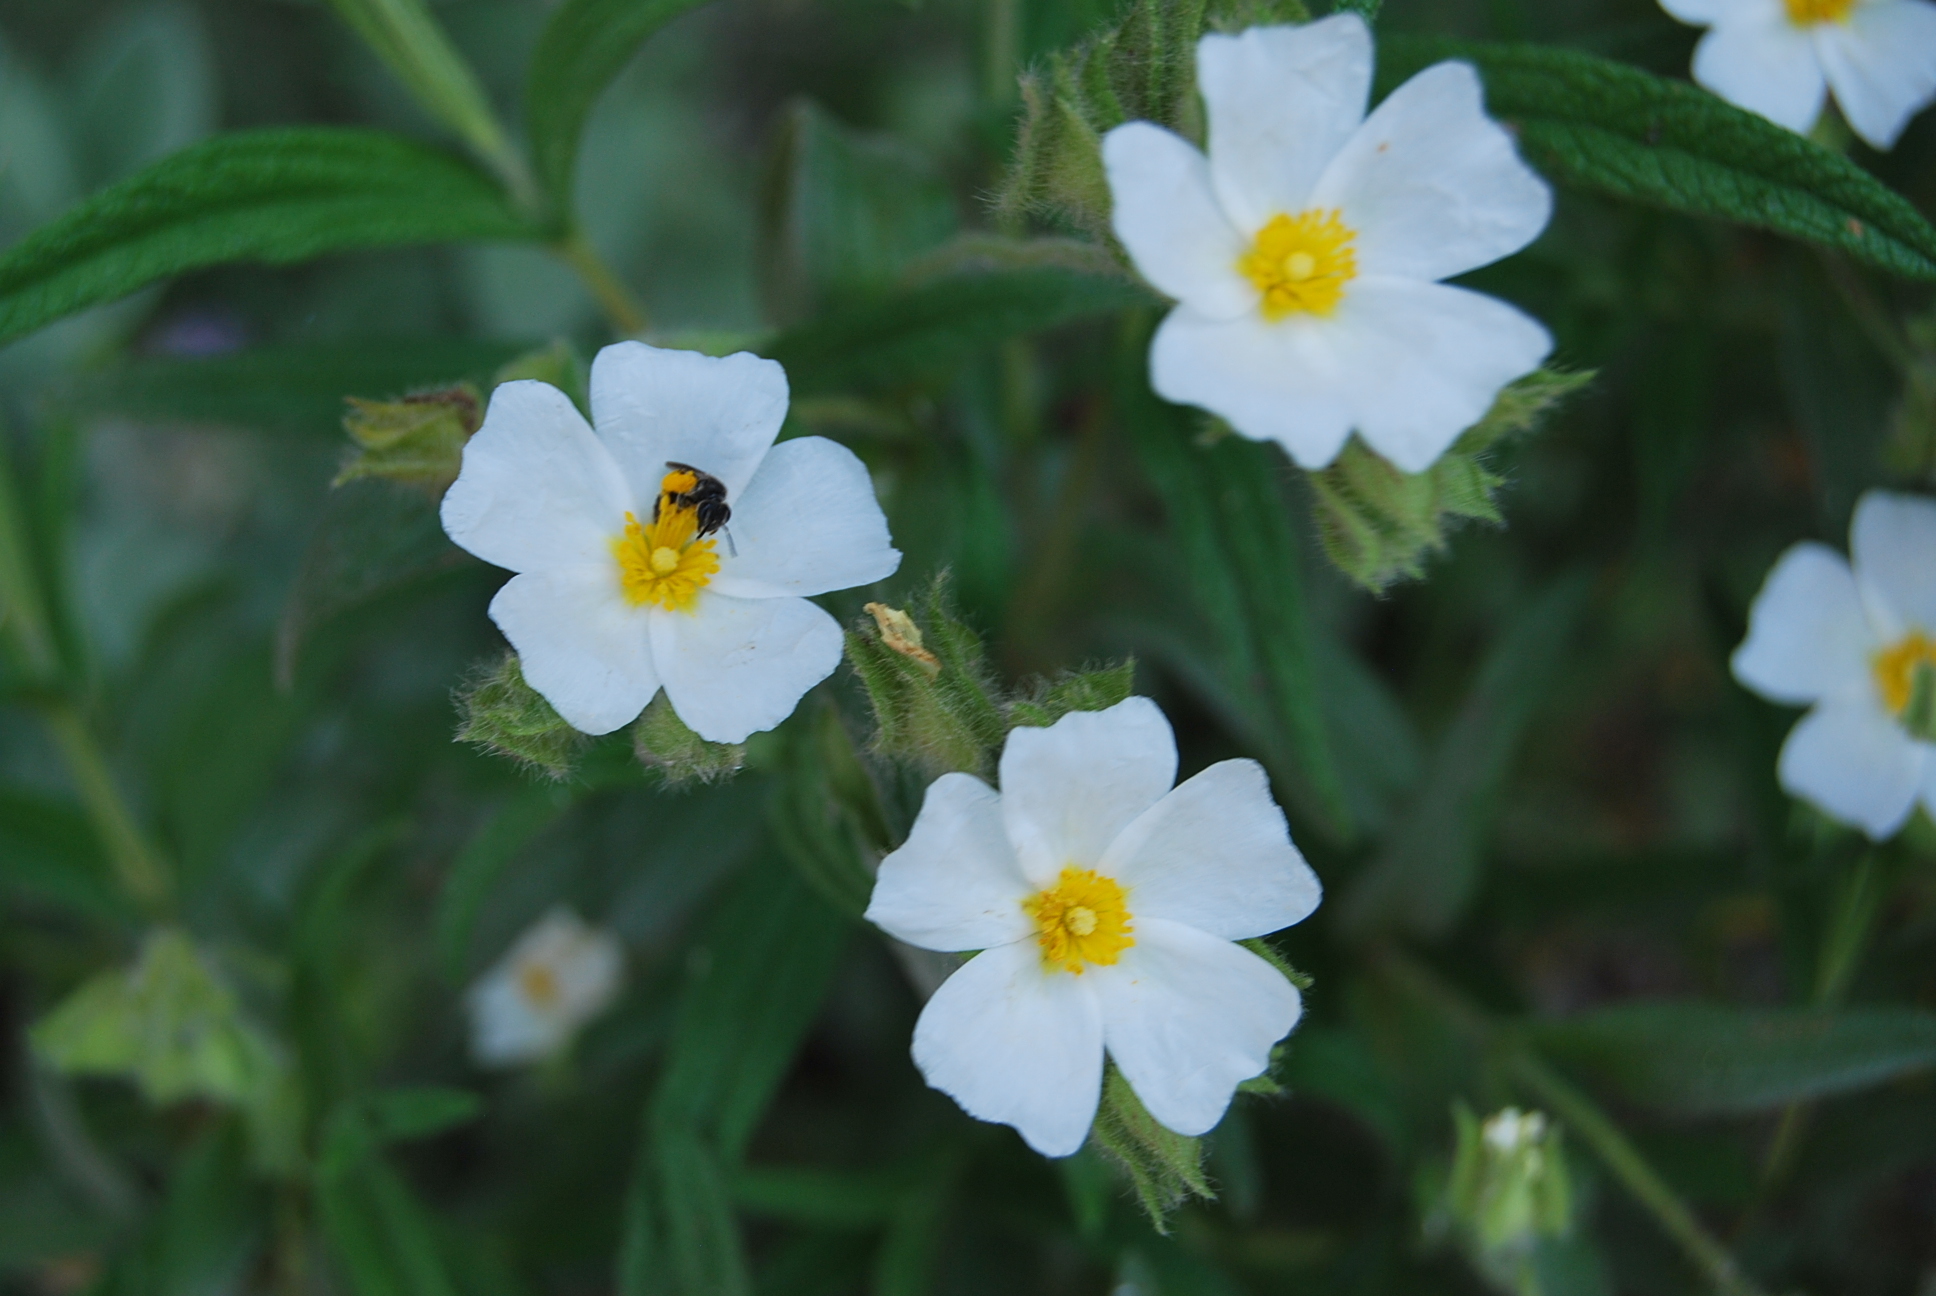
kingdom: Plantae
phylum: Tracheophyta
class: Magnoliopsida
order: Malvales
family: Cistaceae
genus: Cistus
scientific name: Cistus monspeliensis
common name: Montpelier cistus
